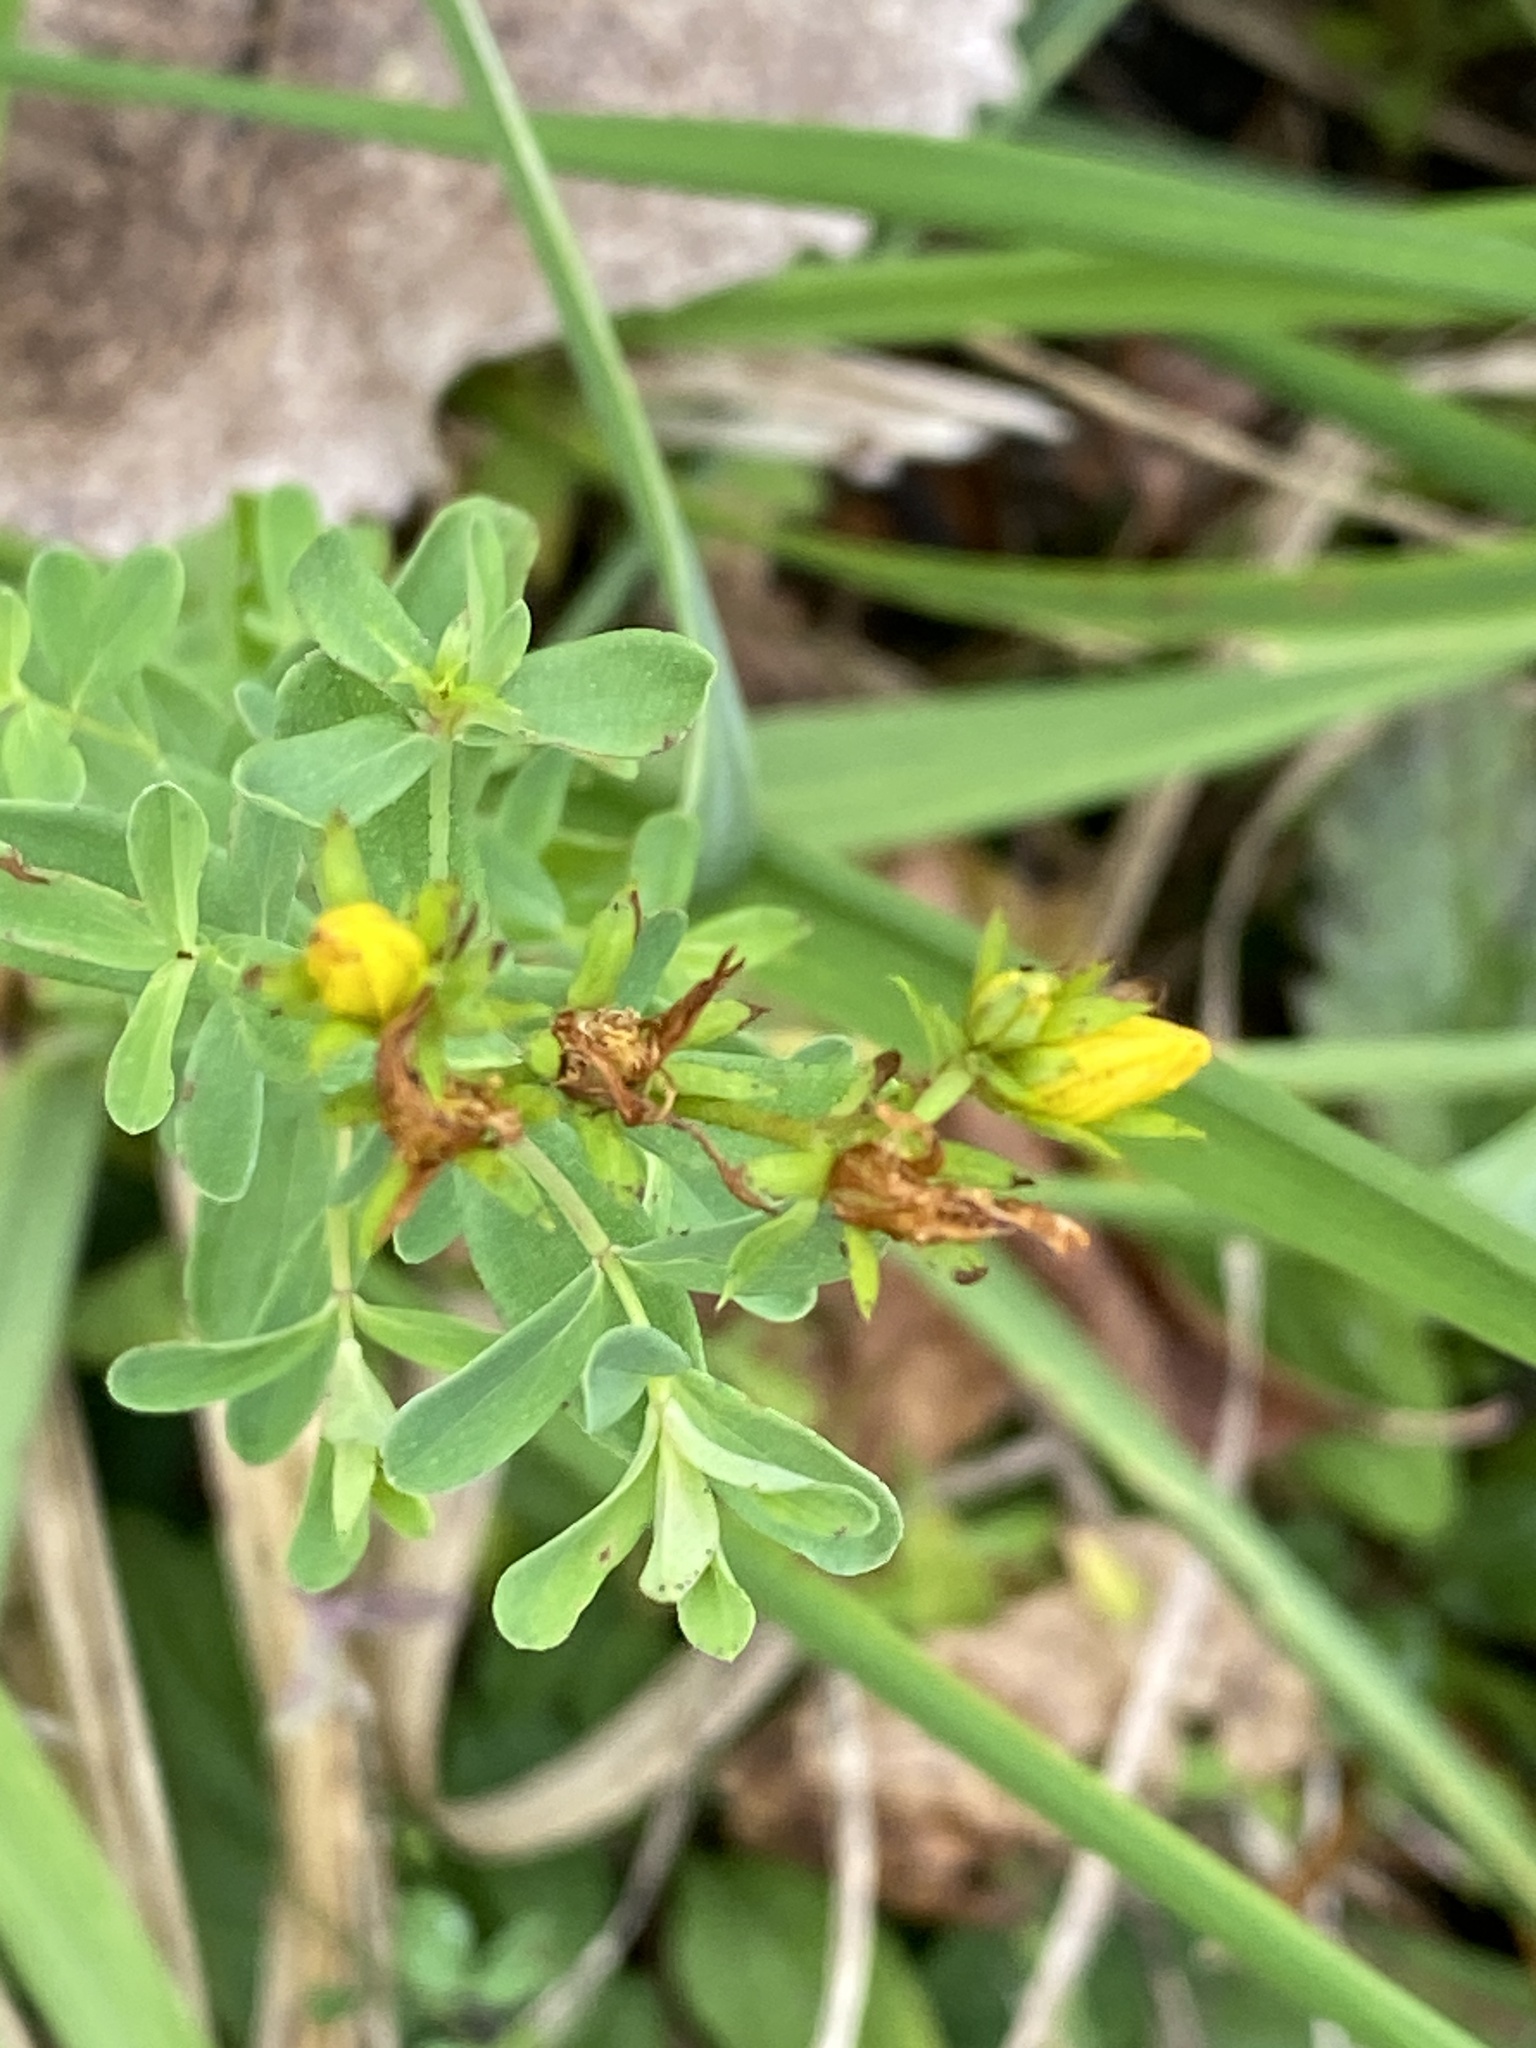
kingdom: Plantae
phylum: Tracheophyta
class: Magnoliopsida
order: Malpighiales
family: Hypericaceae
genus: Hypericum
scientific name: Hypericum perforatum
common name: Common st. johnswort
